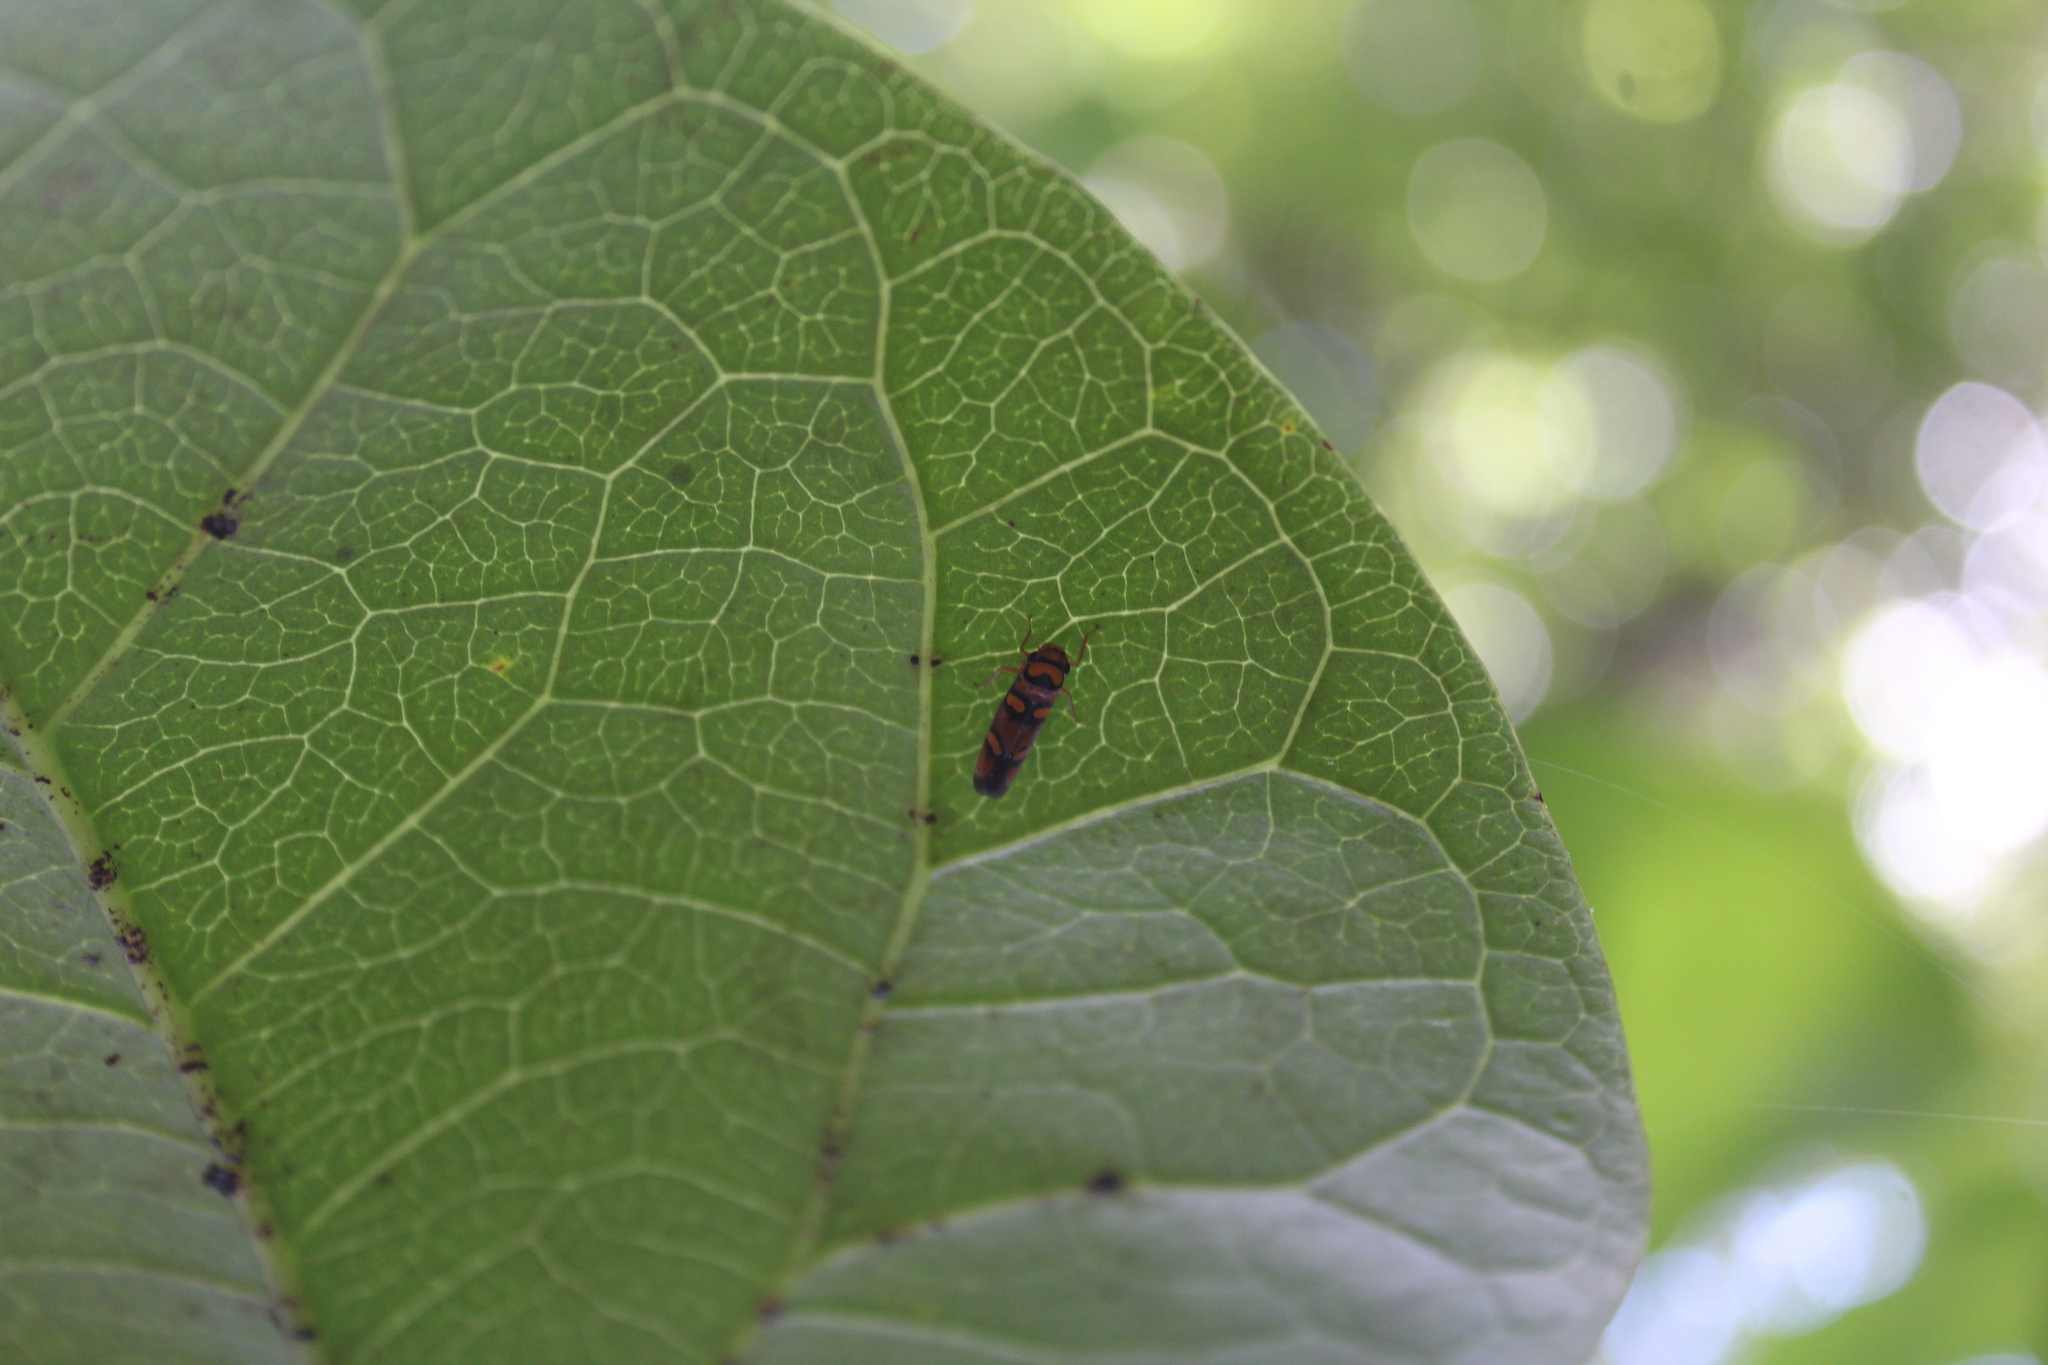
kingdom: Animalia
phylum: Arthropoda
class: Insecta
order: Hemiptera
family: Cicadellidae
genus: Pawiloma
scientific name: Pawiloma jucunda
